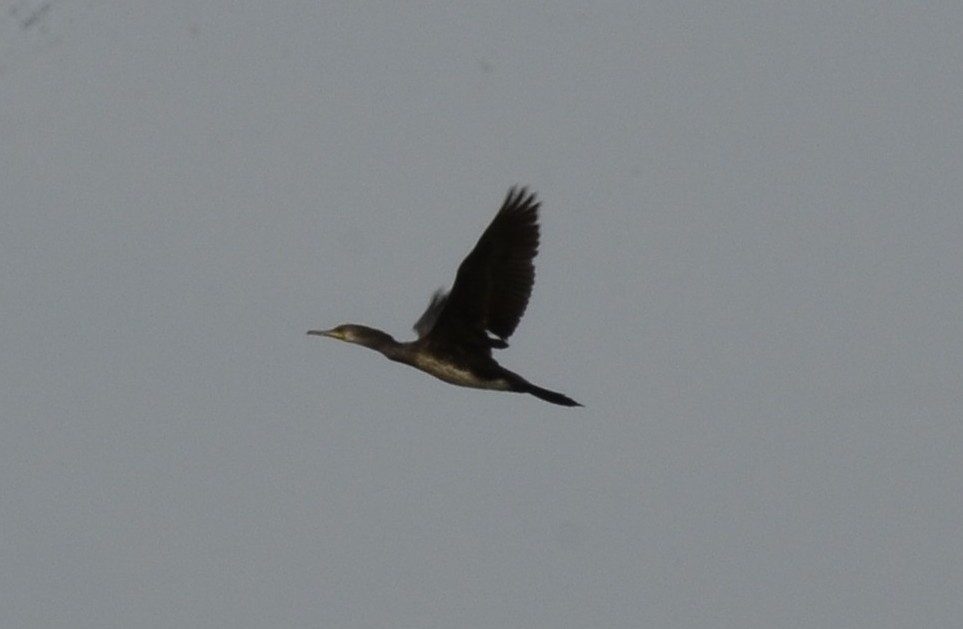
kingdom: Animalia
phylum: Chordata
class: Aves
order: Suliformes
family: Phalacrocoracidae
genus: Phalacrocorax
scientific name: Phalacrocorax fuscicollis
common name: Indian cormorant
